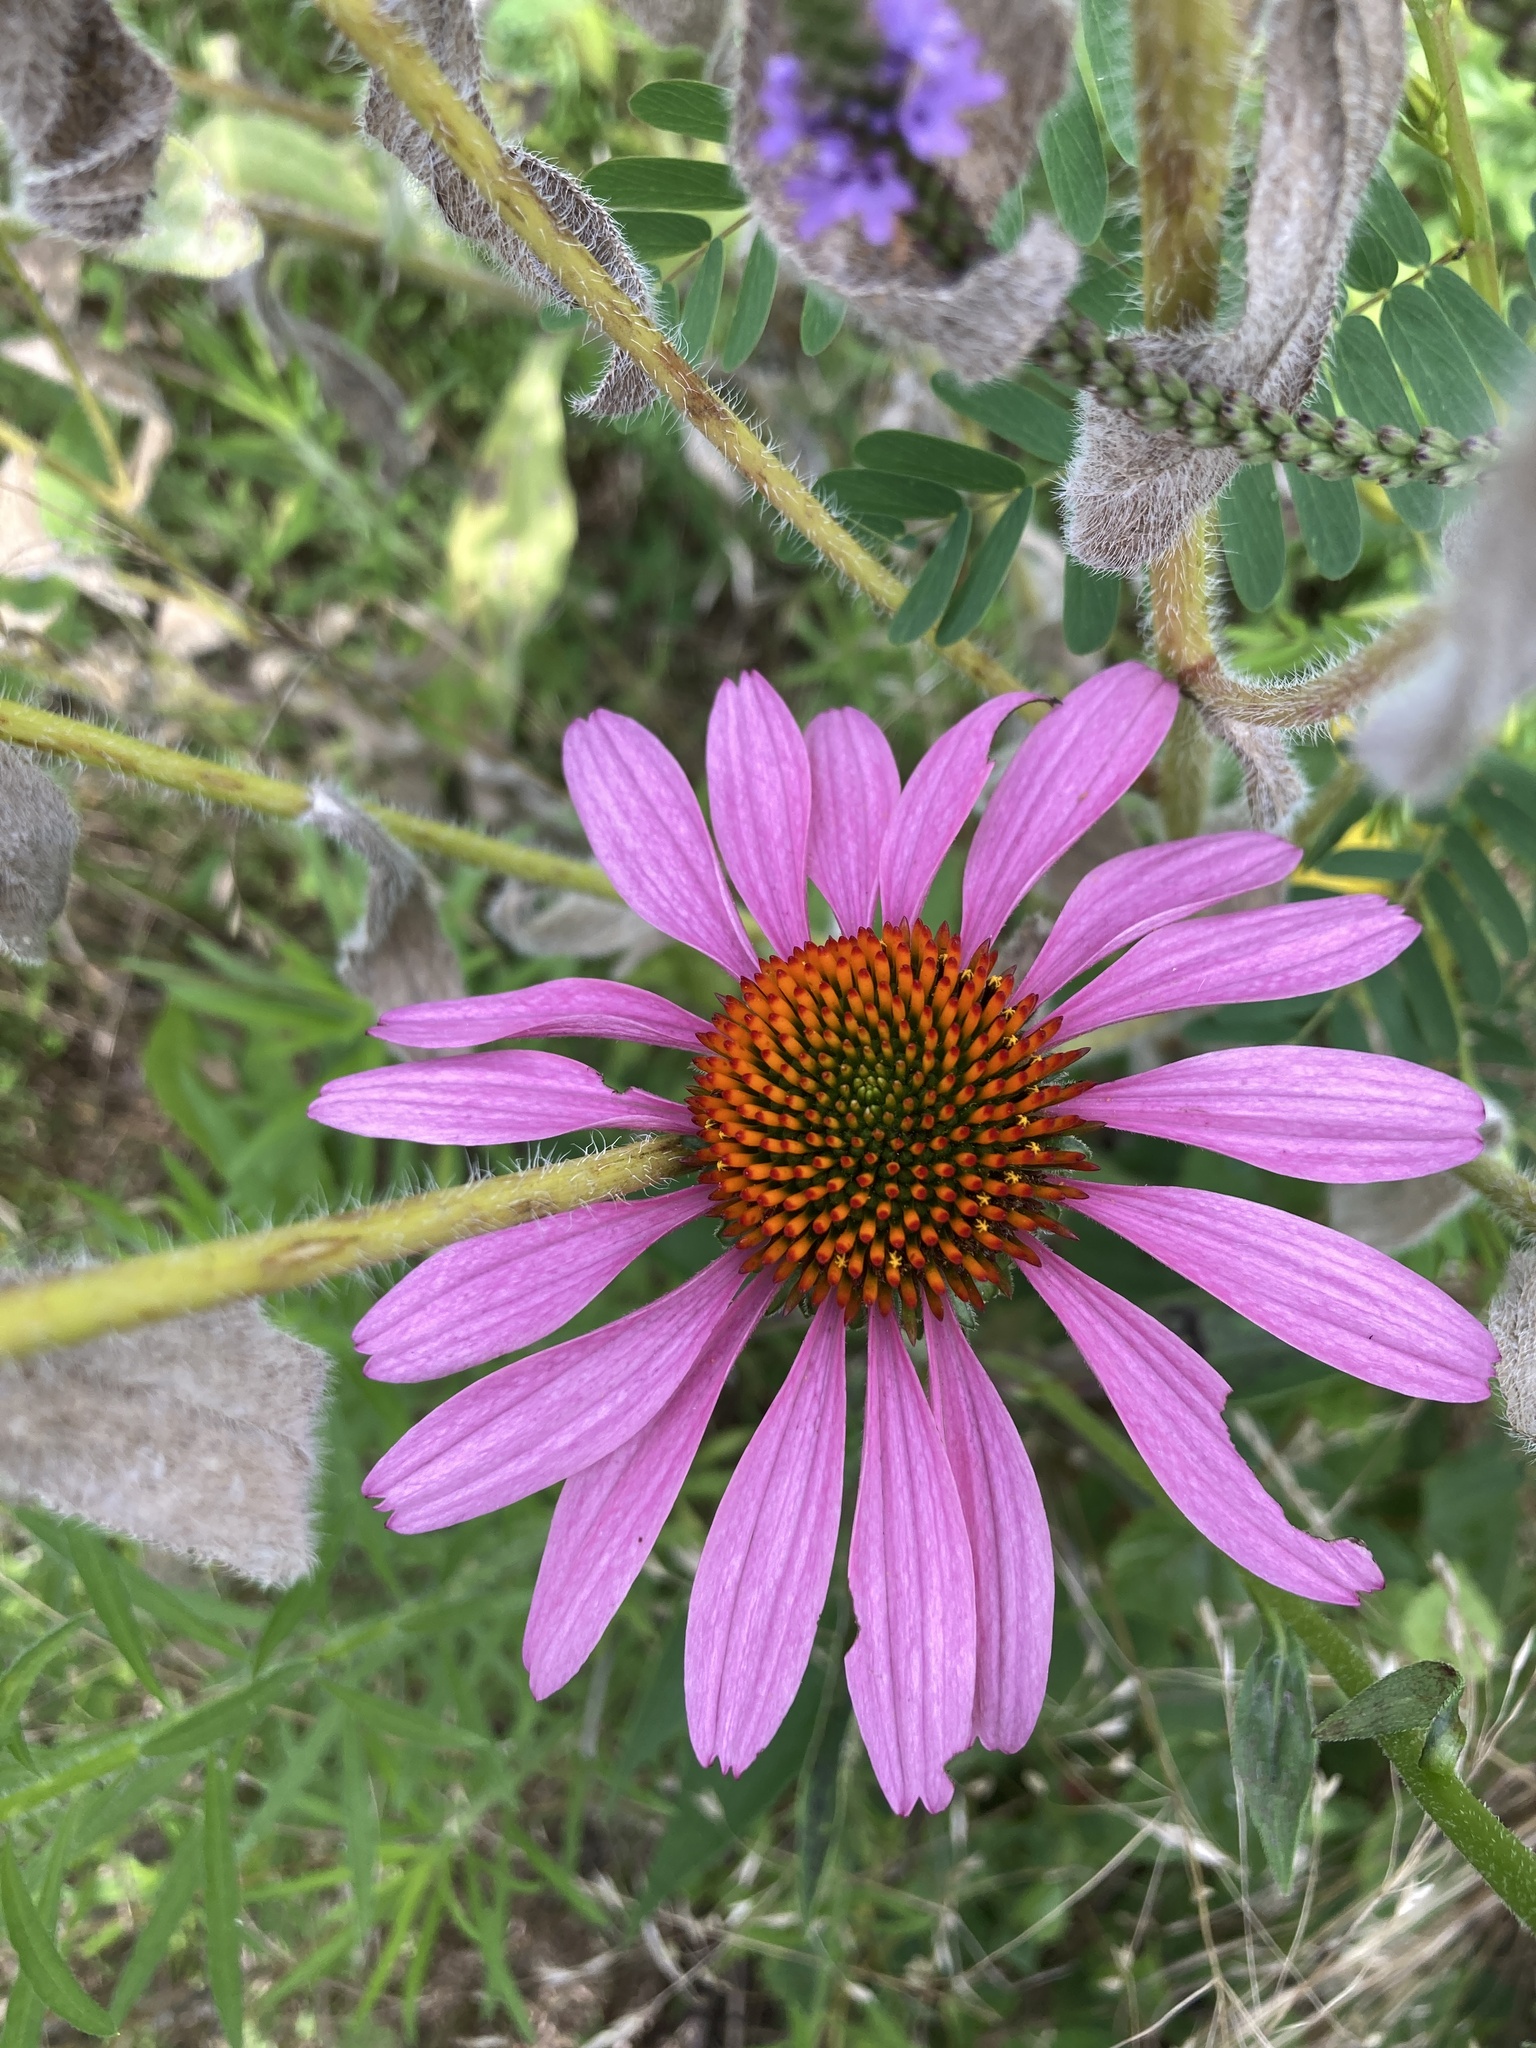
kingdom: Plantae
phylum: Tracheophyta
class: Magnoliopsida
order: Asterales
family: Asteraceae
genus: Echinacea
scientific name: Echinacea purpurea
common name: Broad-leaved purple coneflower
